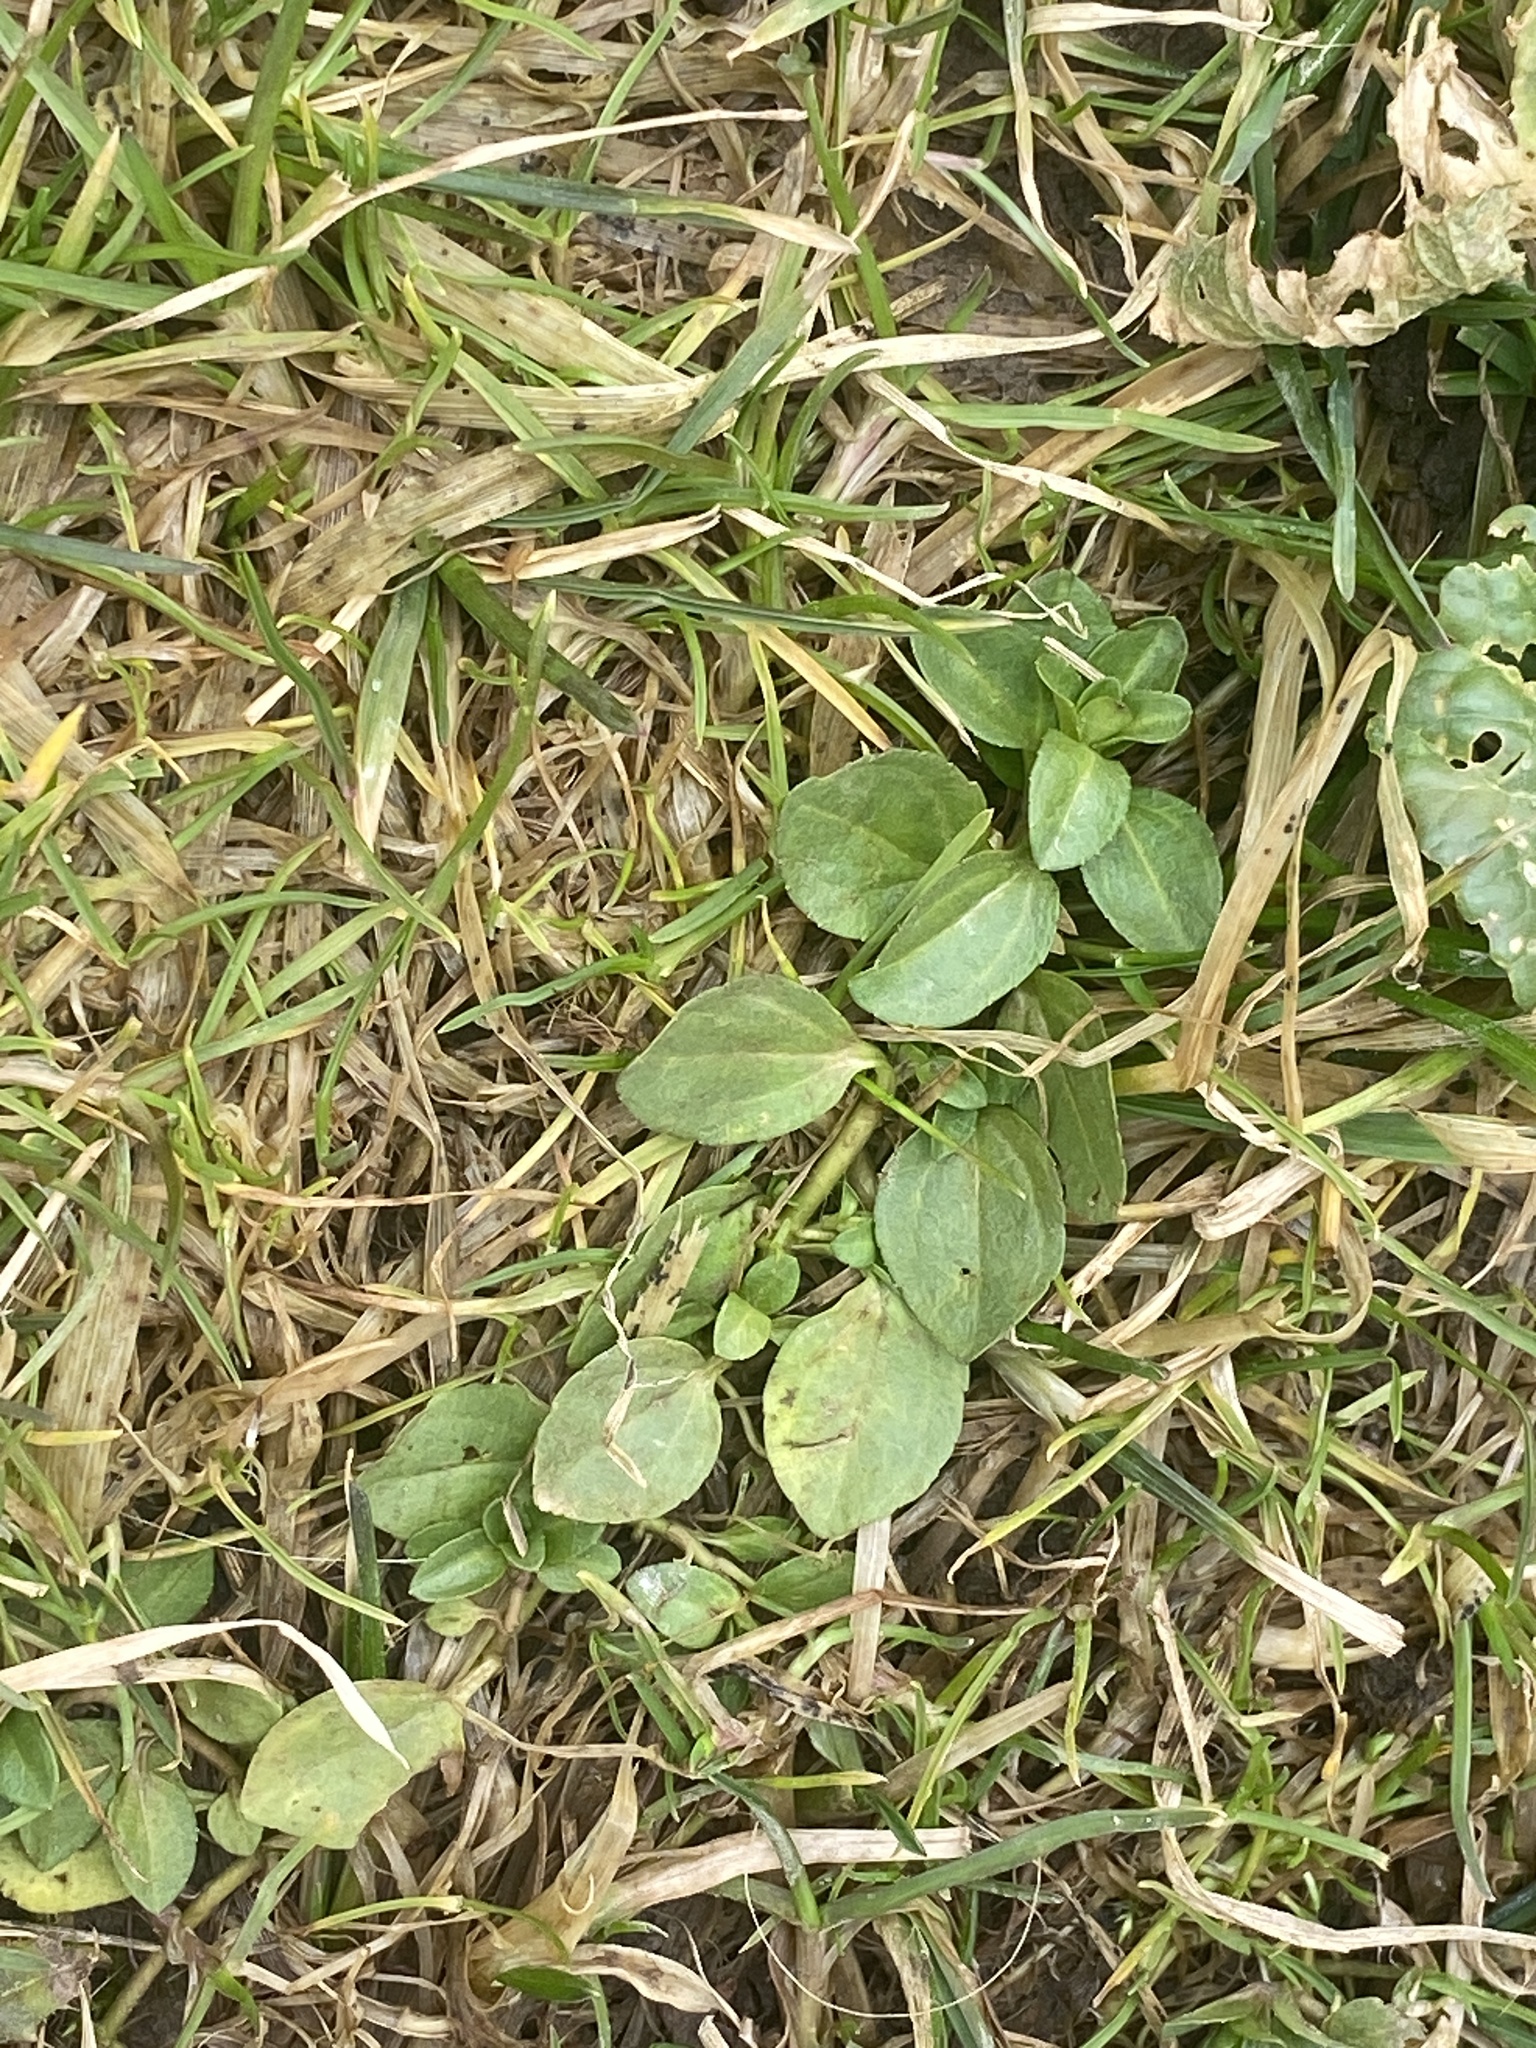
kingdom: Plantae
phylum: Tracheophyta
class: Magnoliopsida
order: Lamiales
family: Plantaginaceae
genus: Veronica
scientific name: Veronica serpyllifolia
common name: Thyme-leaved speedwell
